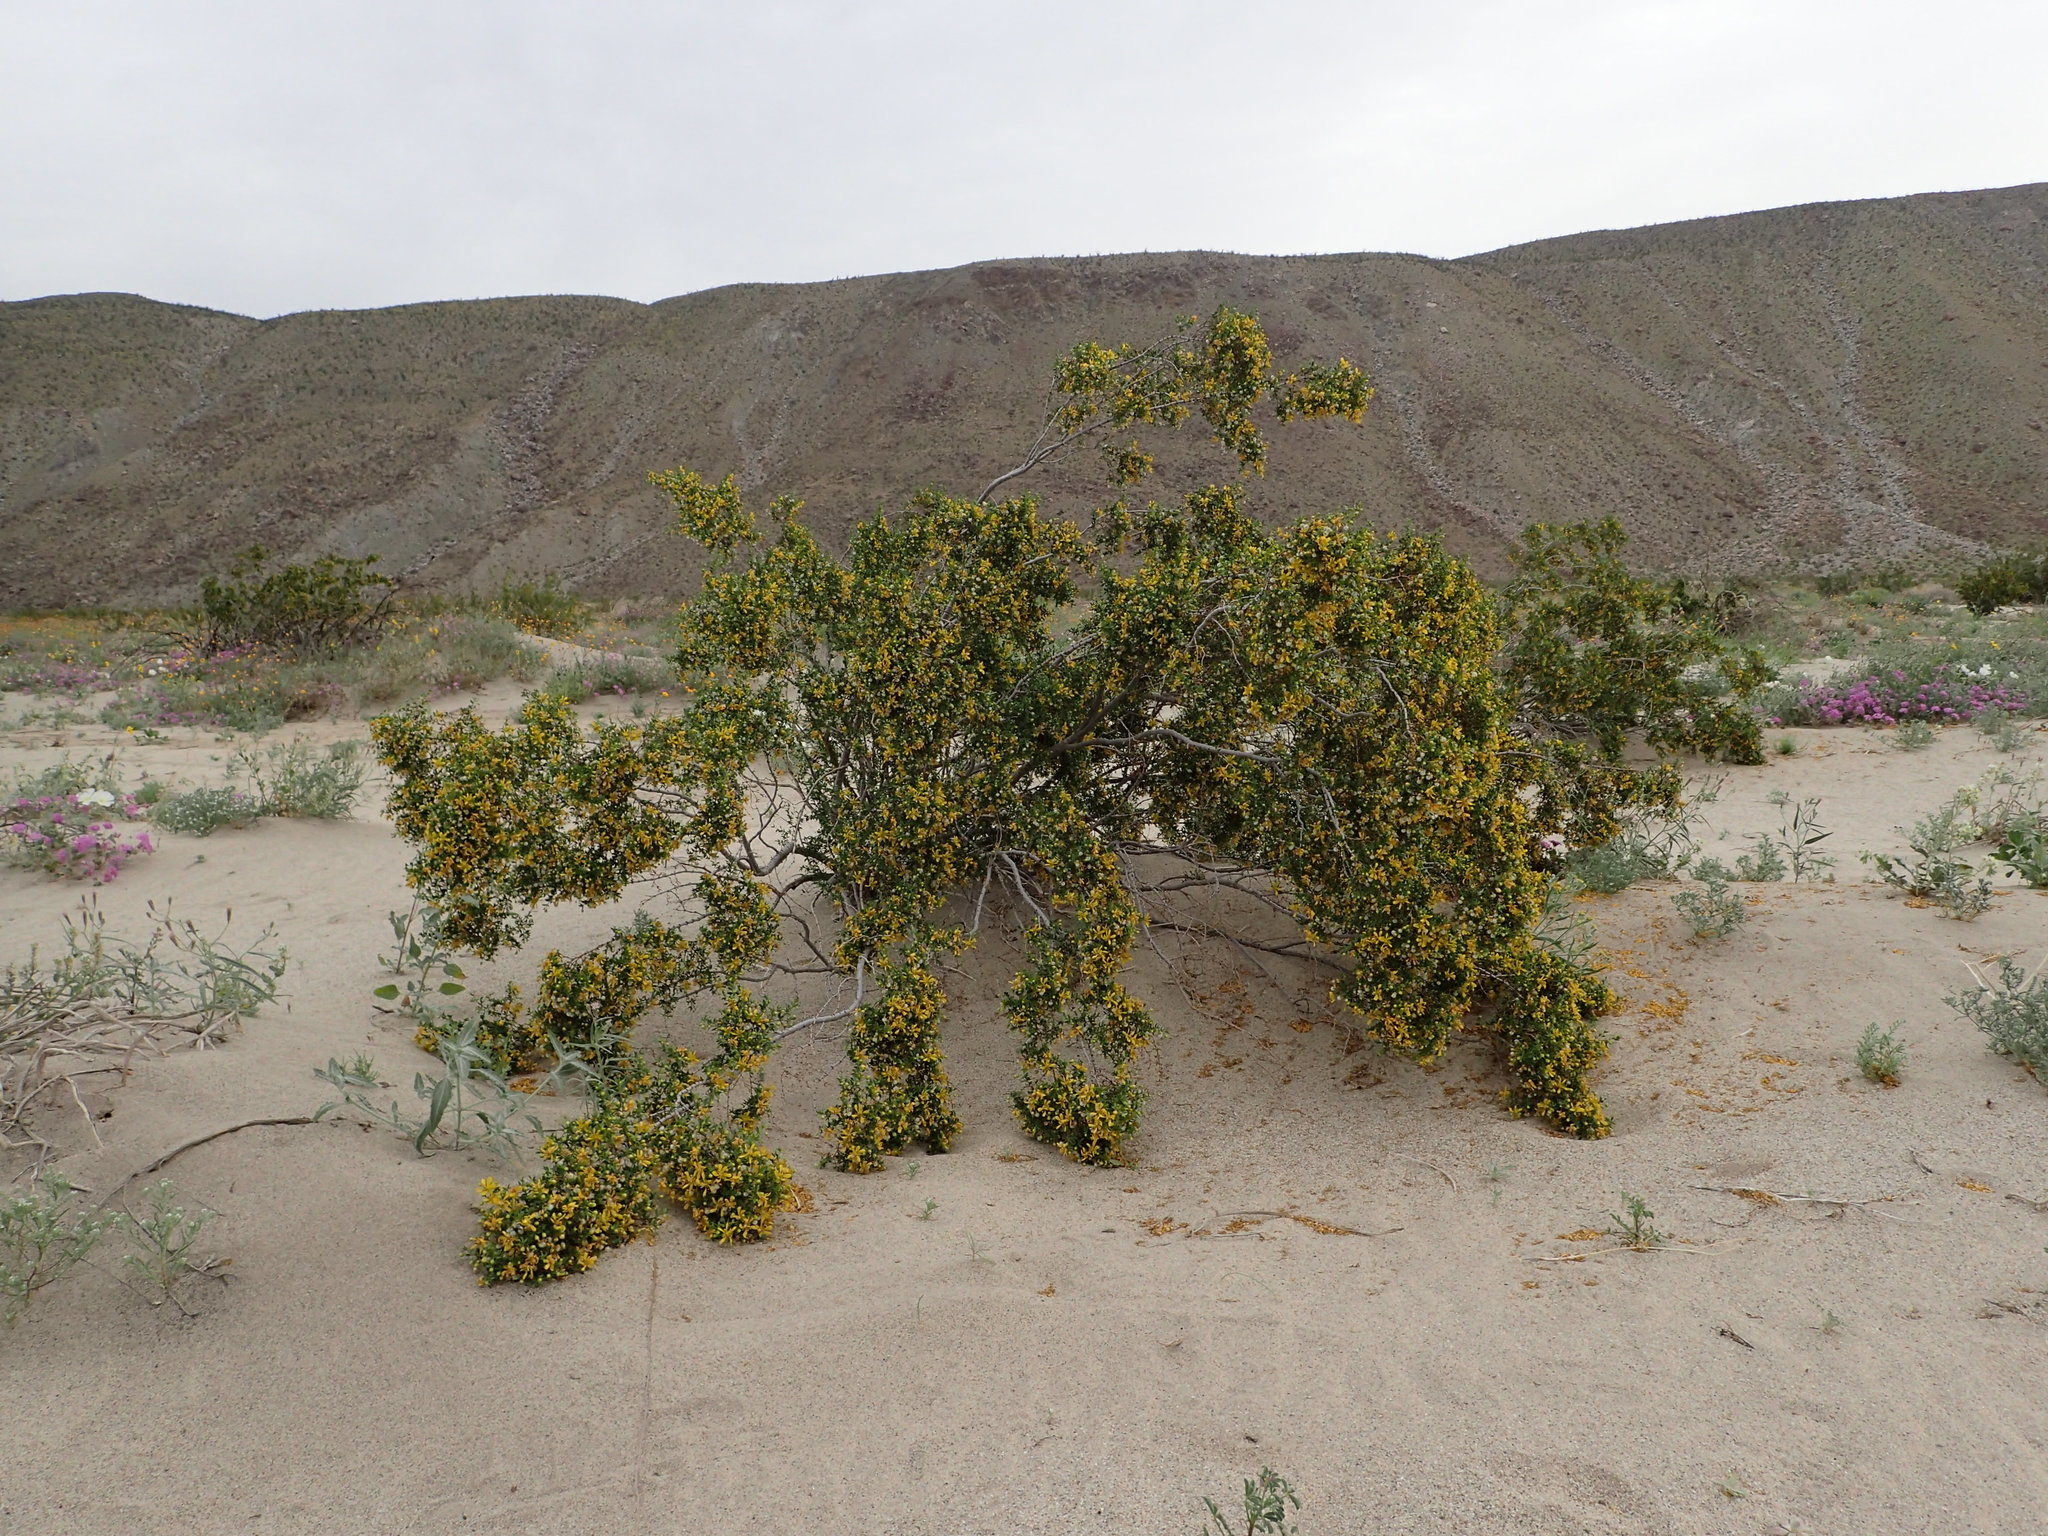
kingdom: Plantae
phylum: Tracheophyta
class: Magnoliopsida
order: Zygophyllales
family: Zygophyllaceae
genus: Larrea
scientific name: Larrea tridentata
